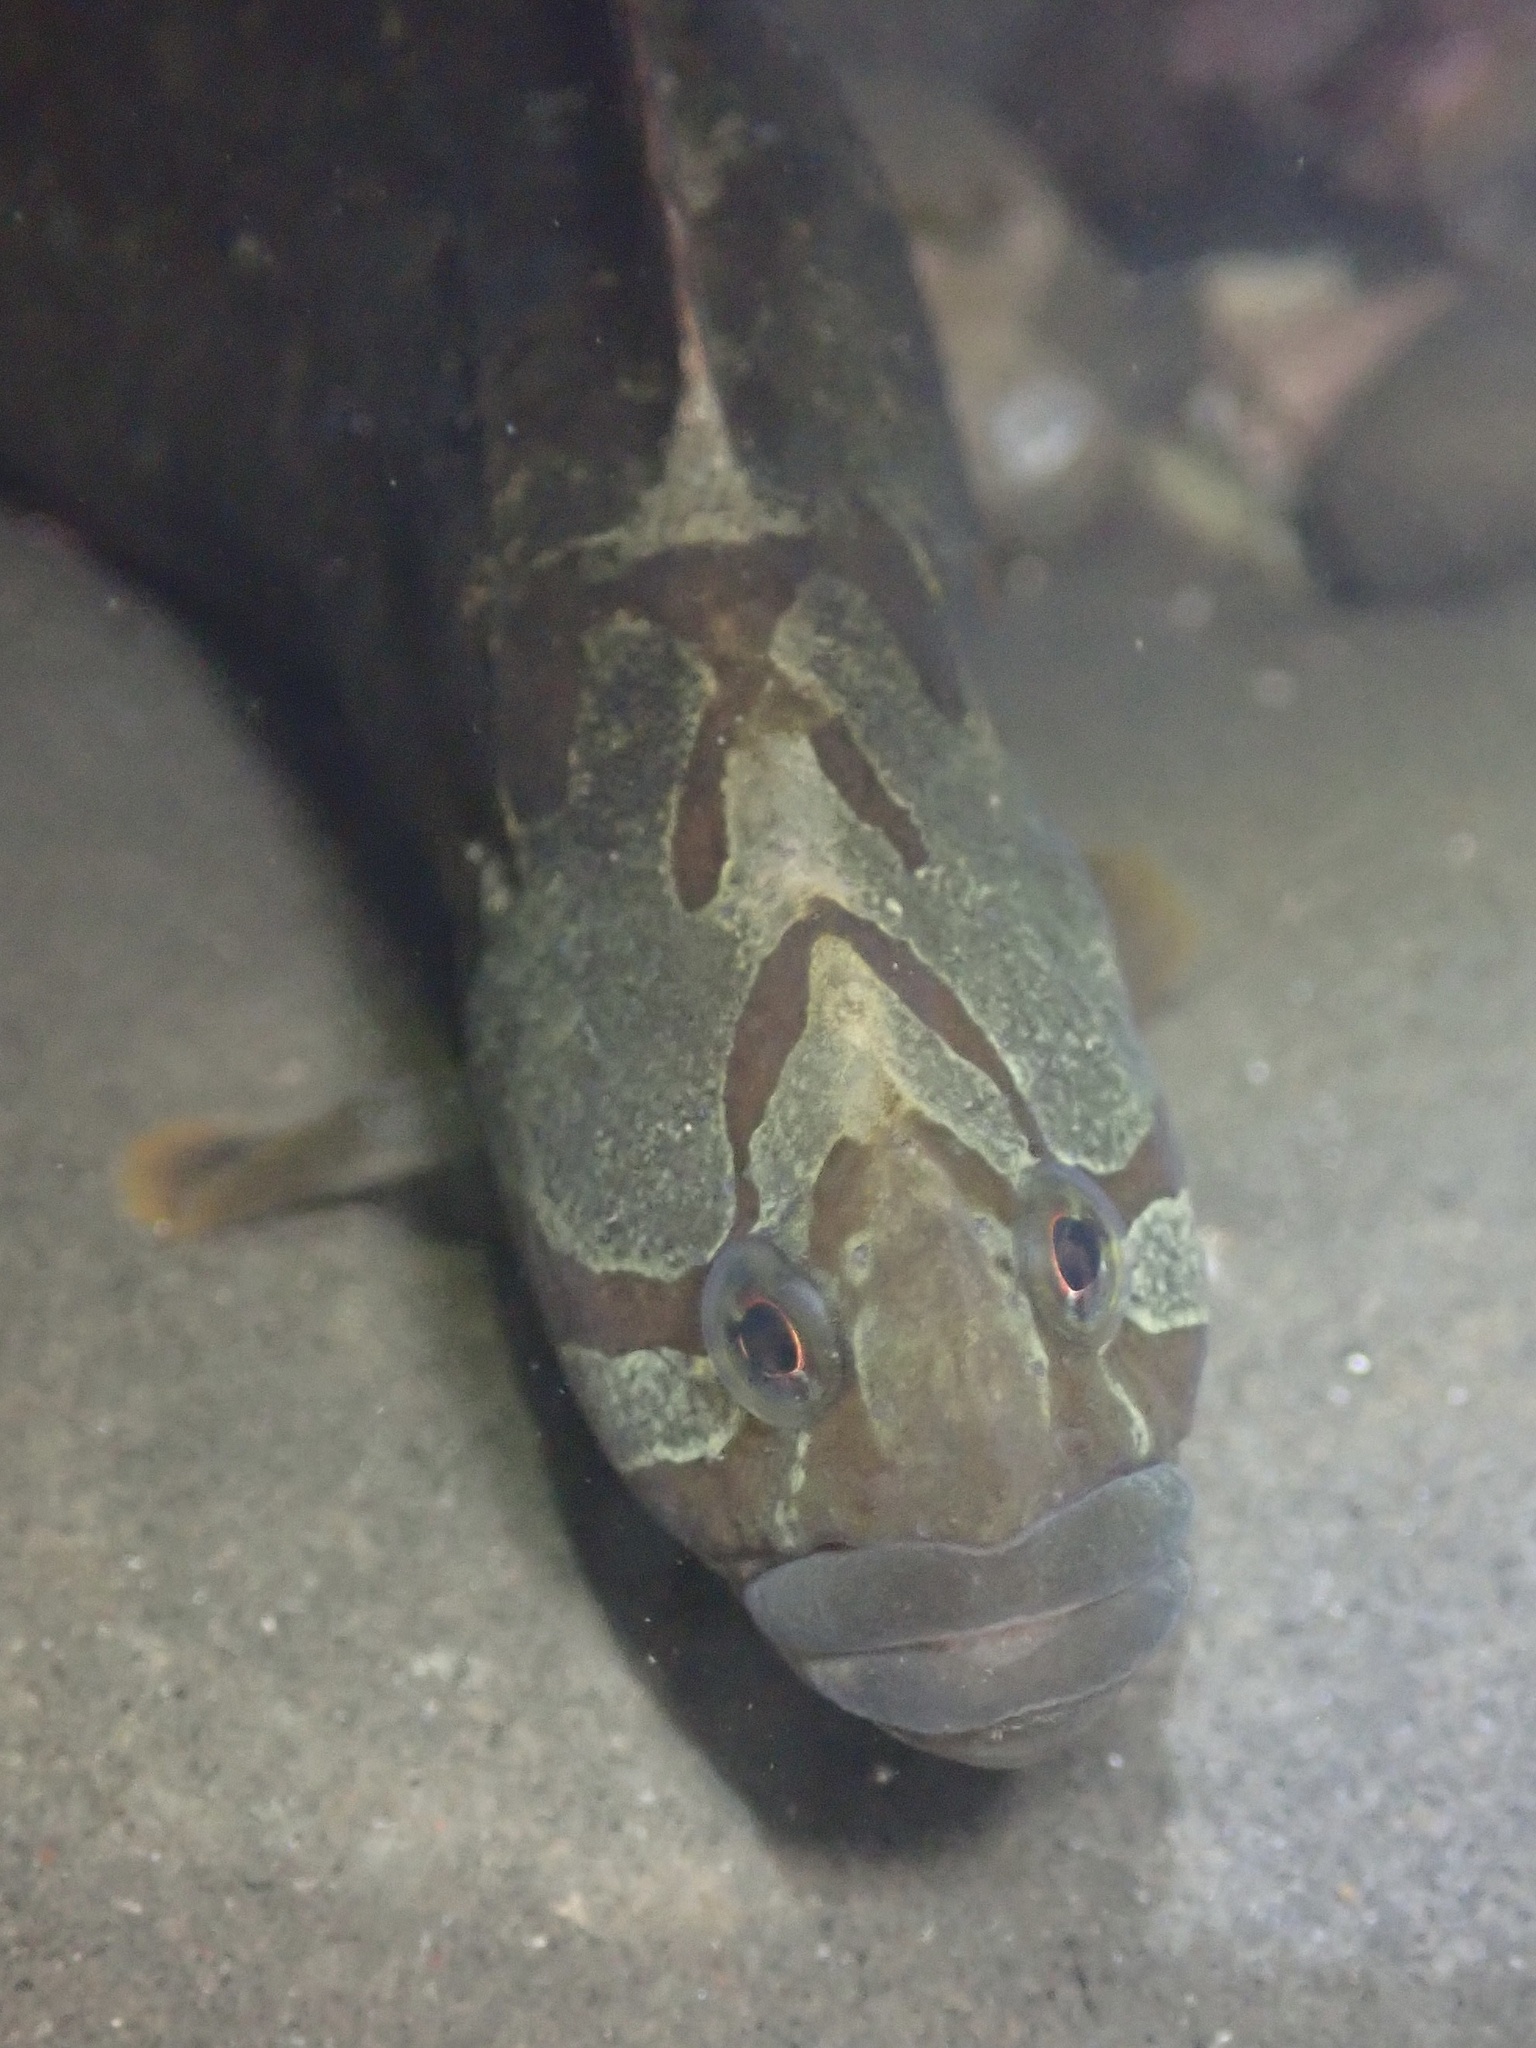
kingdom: Animalia
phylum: Chordata
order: Perciformes
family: Stichaeidae
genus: Cebidichthys
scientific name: Cebidichthys violaceus
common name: Monkeyface prickleback
